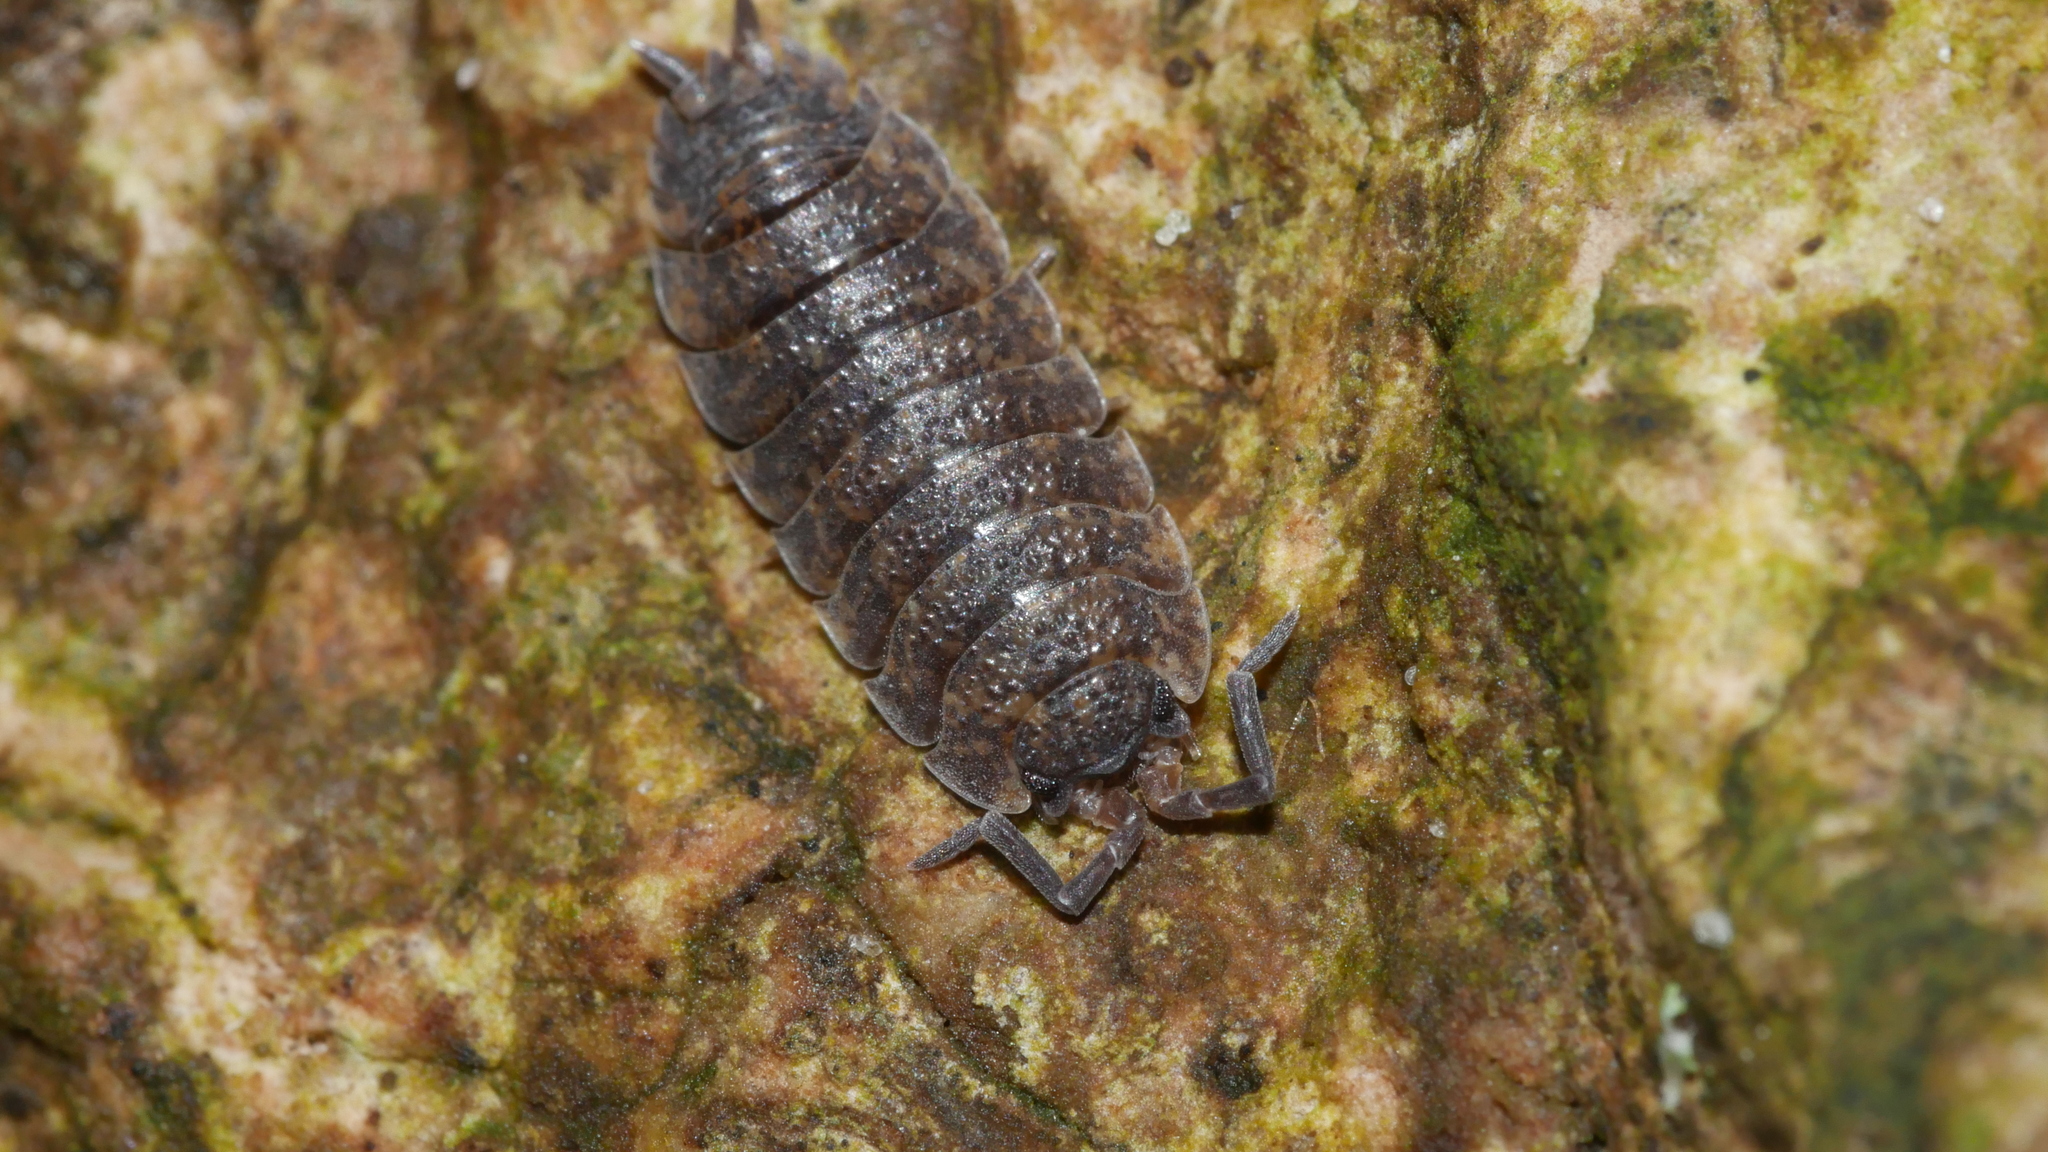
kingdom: Animalia
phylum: Arthropoda
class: Malacostraca
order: Isopoda
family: Porcellionidae
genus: Porcellio
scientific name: Porcellio scaber
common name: Common rough woodlouse
